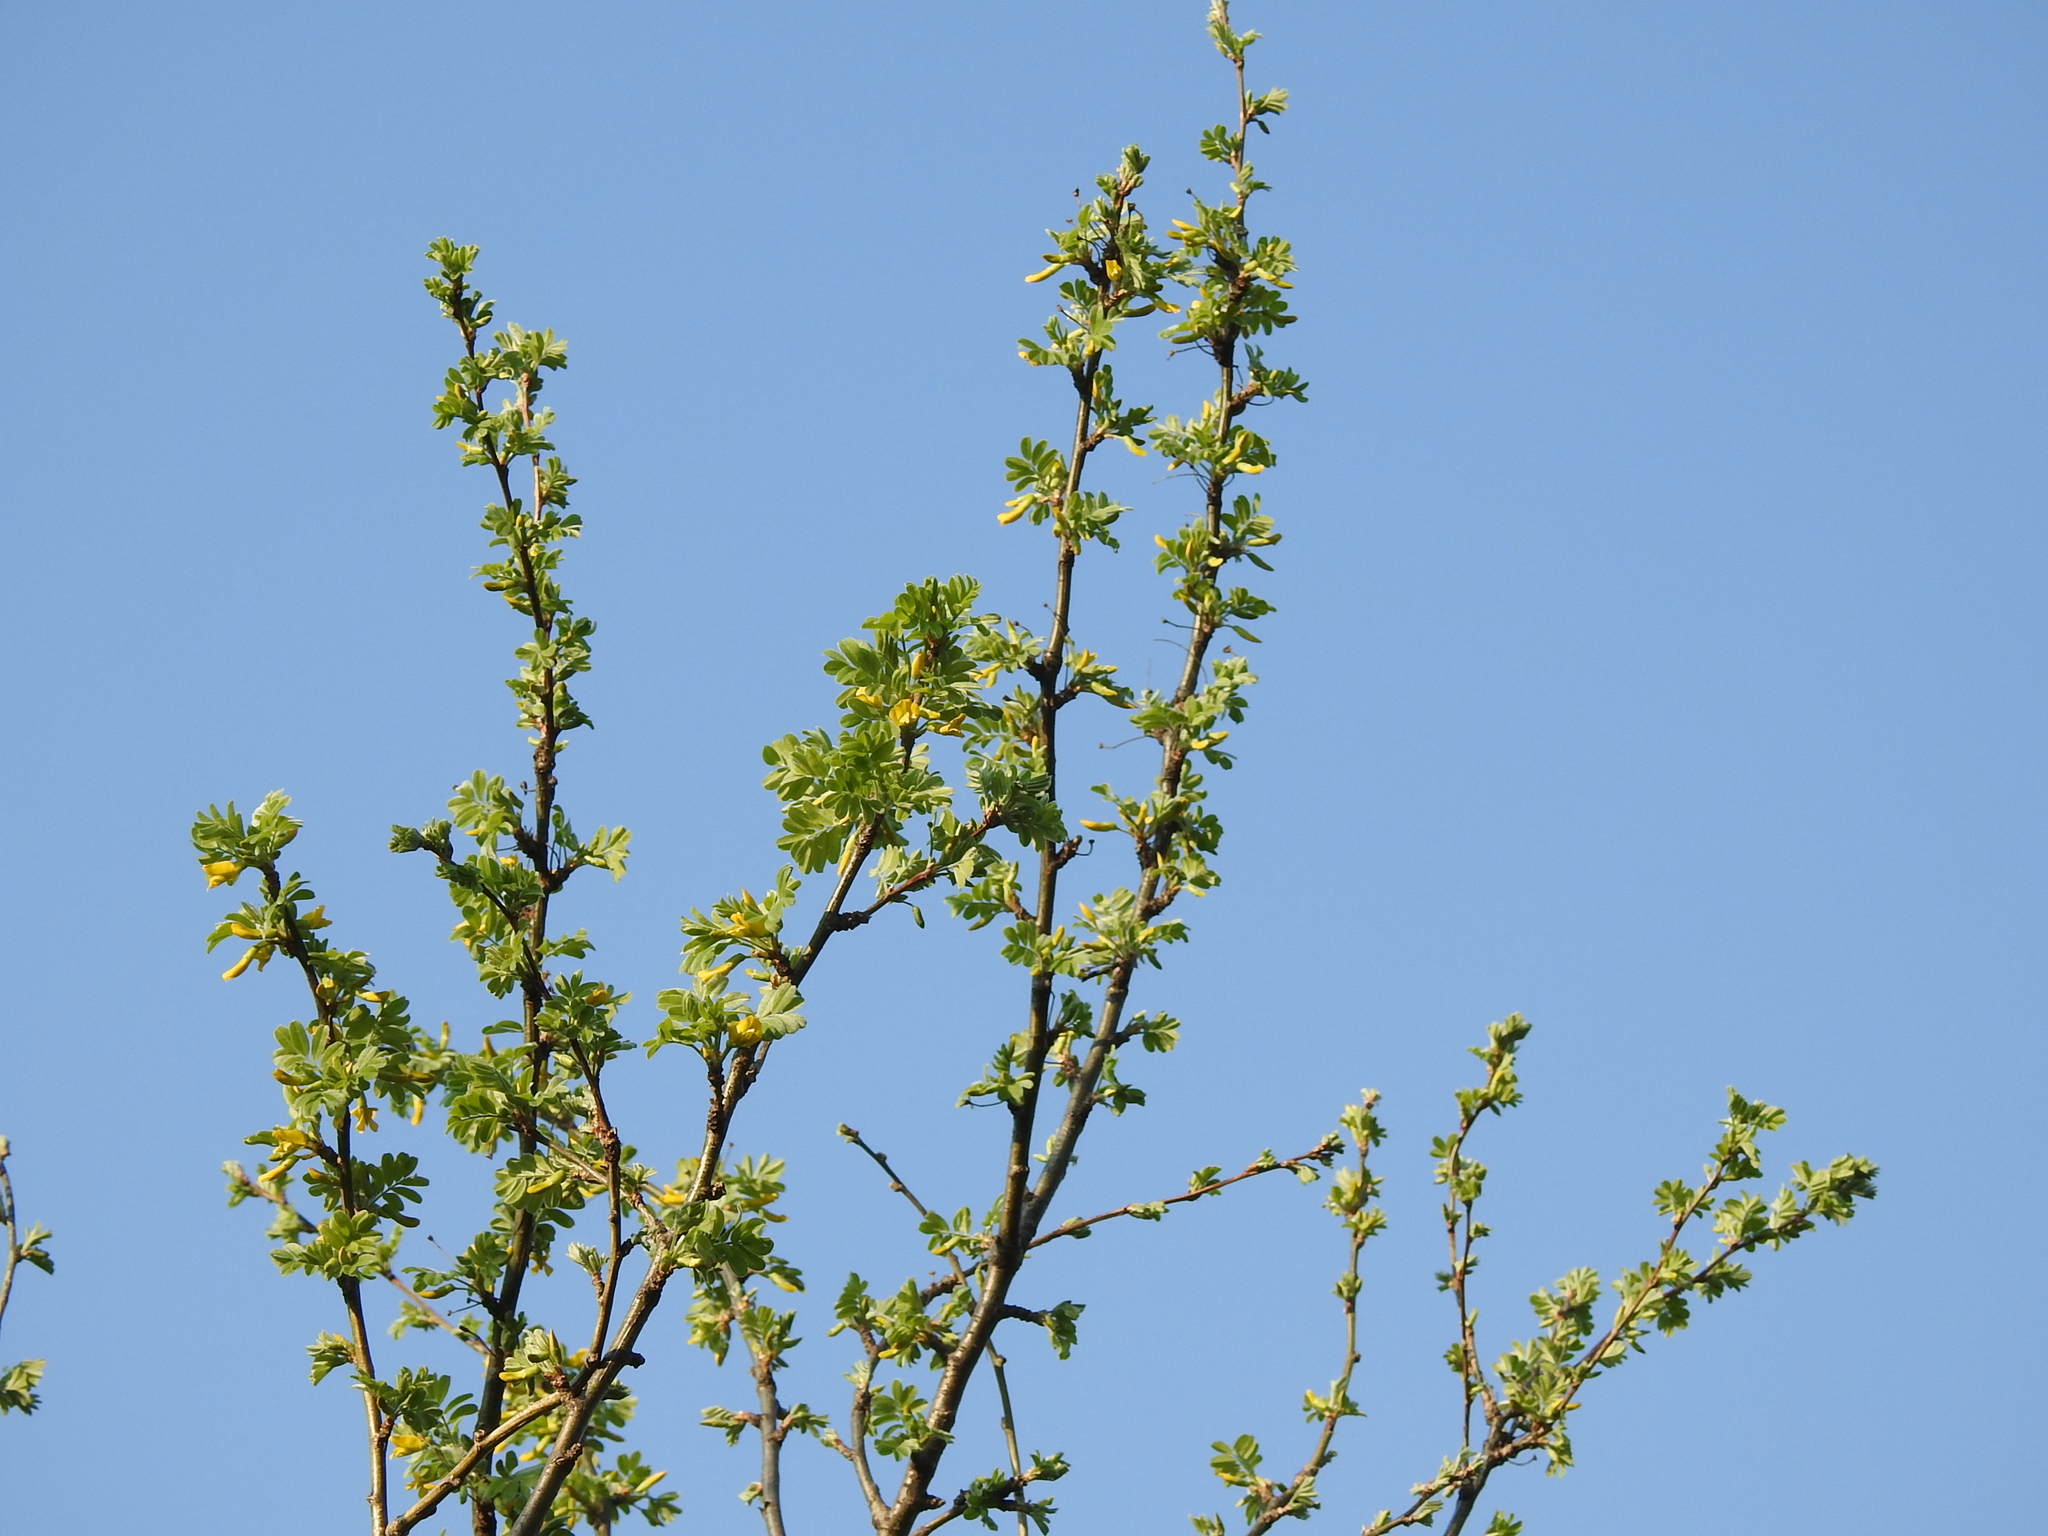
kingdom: Plantae
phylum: Tracheophyta
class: Magnoliopsida
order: Fabales
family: Fabaceae
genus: Caragana
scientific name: Caragana arborescens
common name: Siberian peashrub
